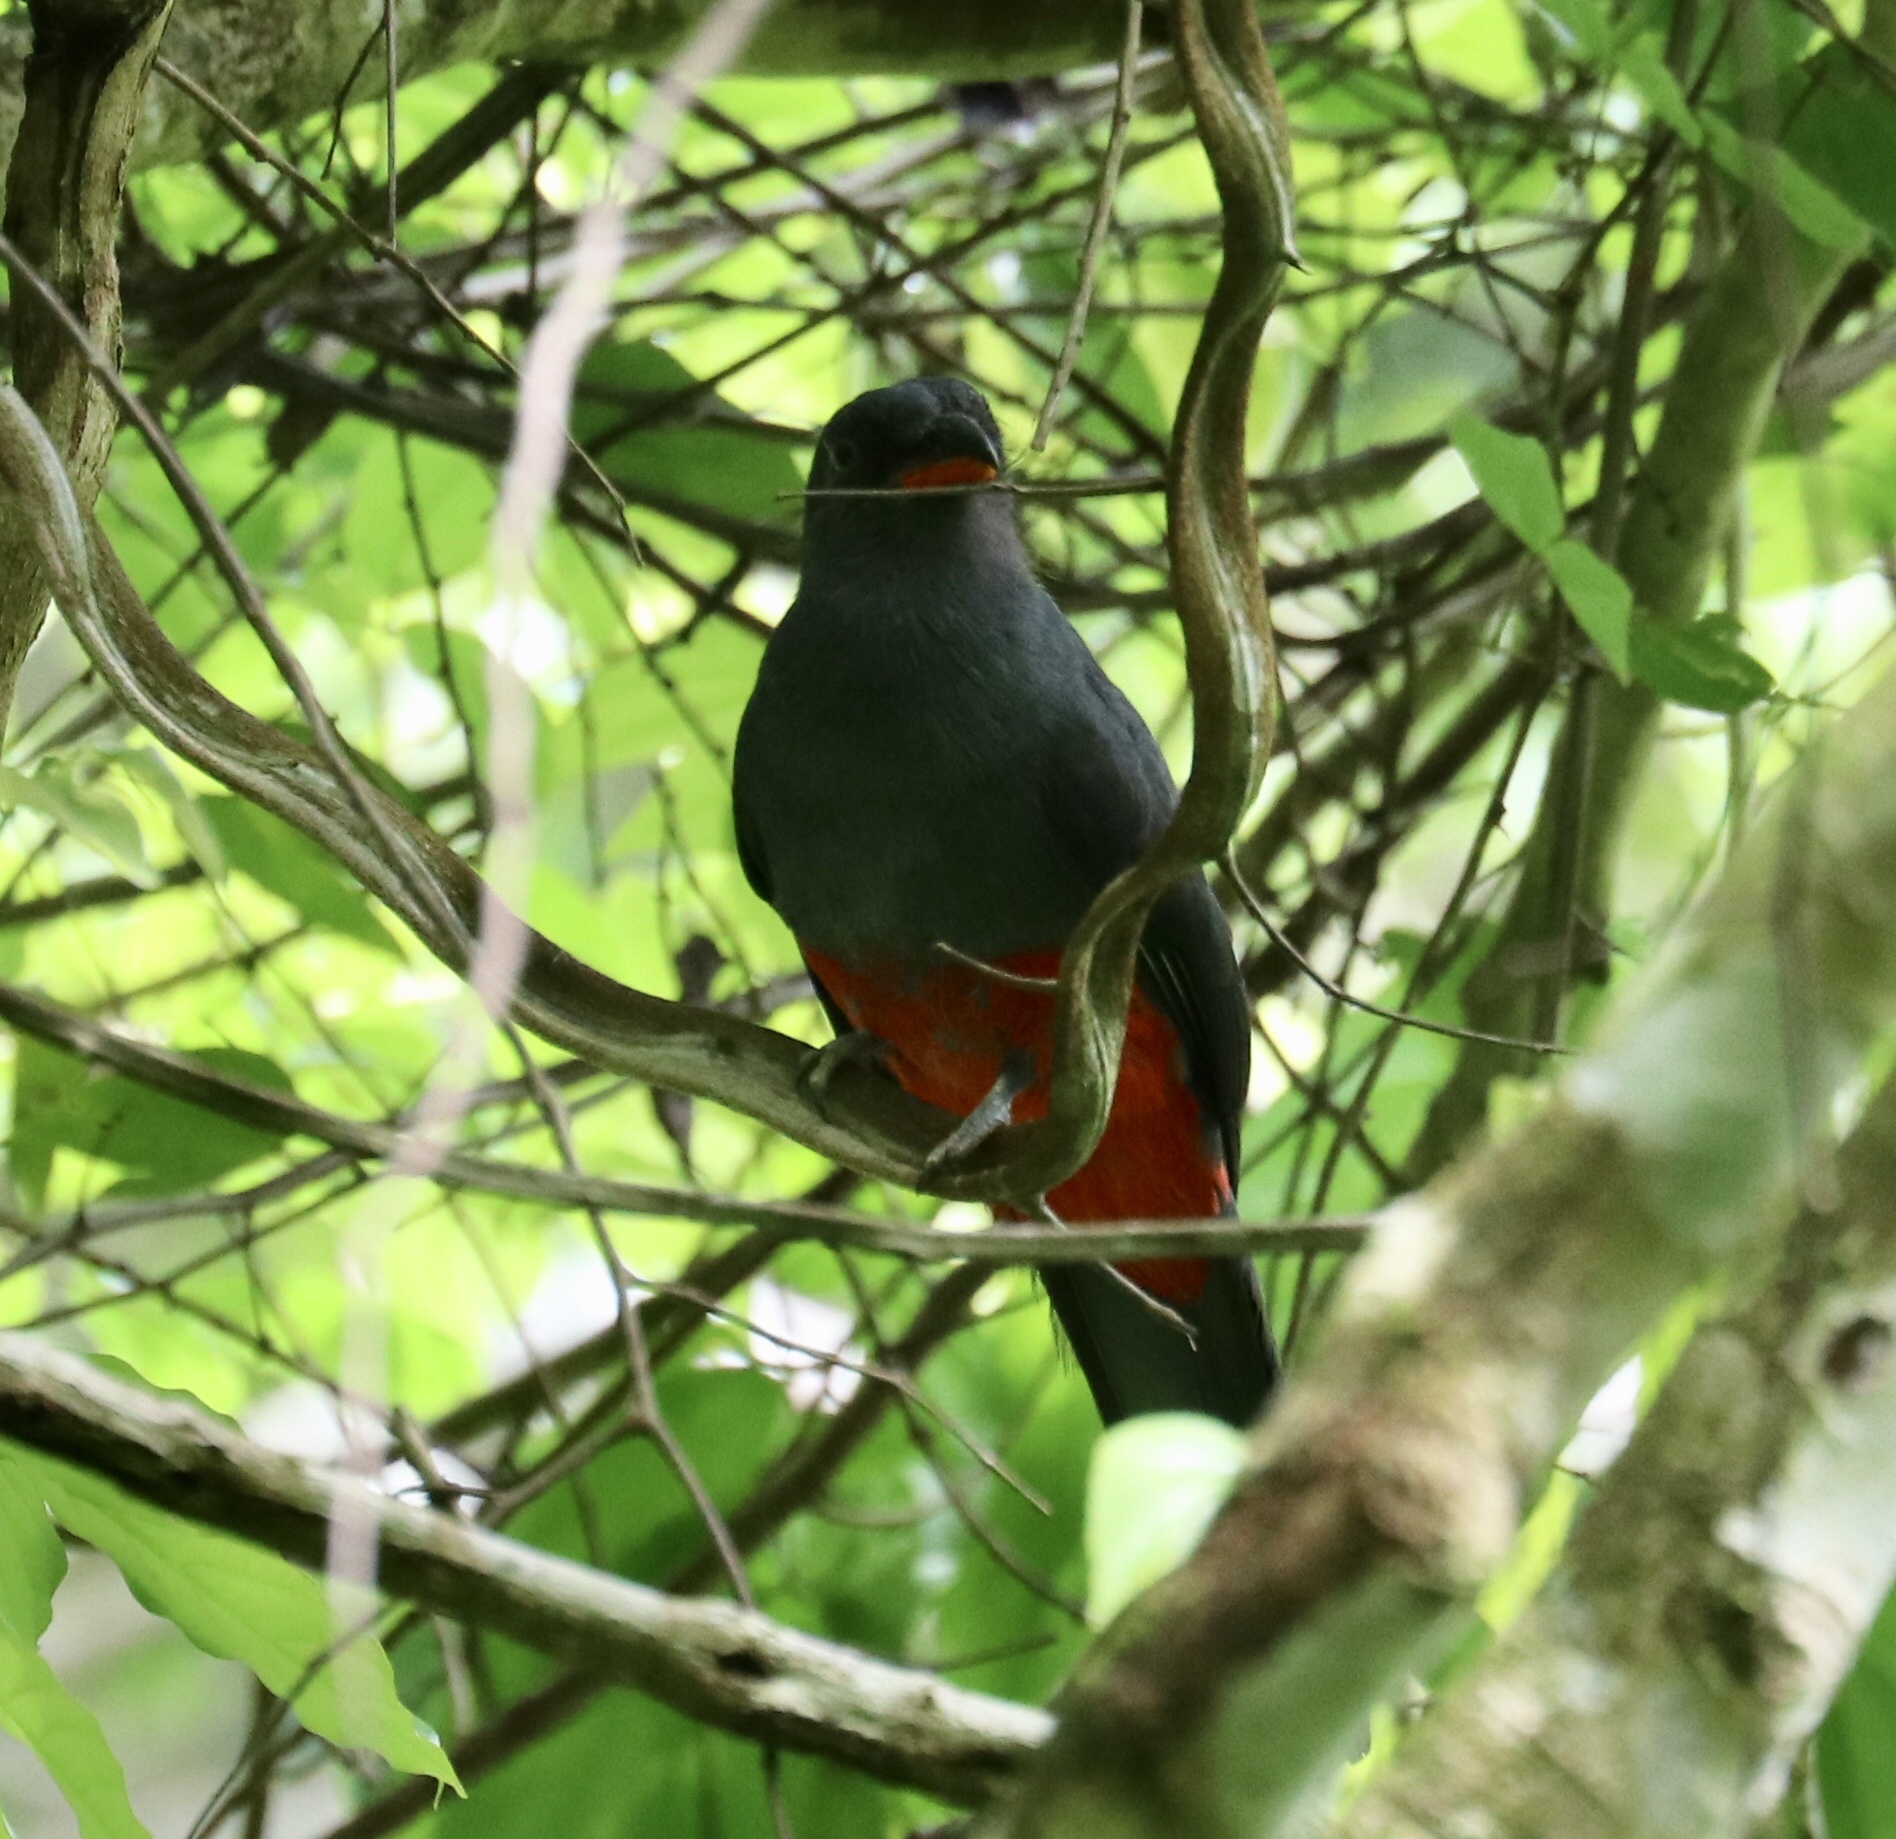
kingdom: Animalia
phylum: Chordata
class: Aves
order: Trogoniformes
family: Trogonidae
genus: Trogon
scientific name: Trogon massena
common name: Slaty-tailed trogon
